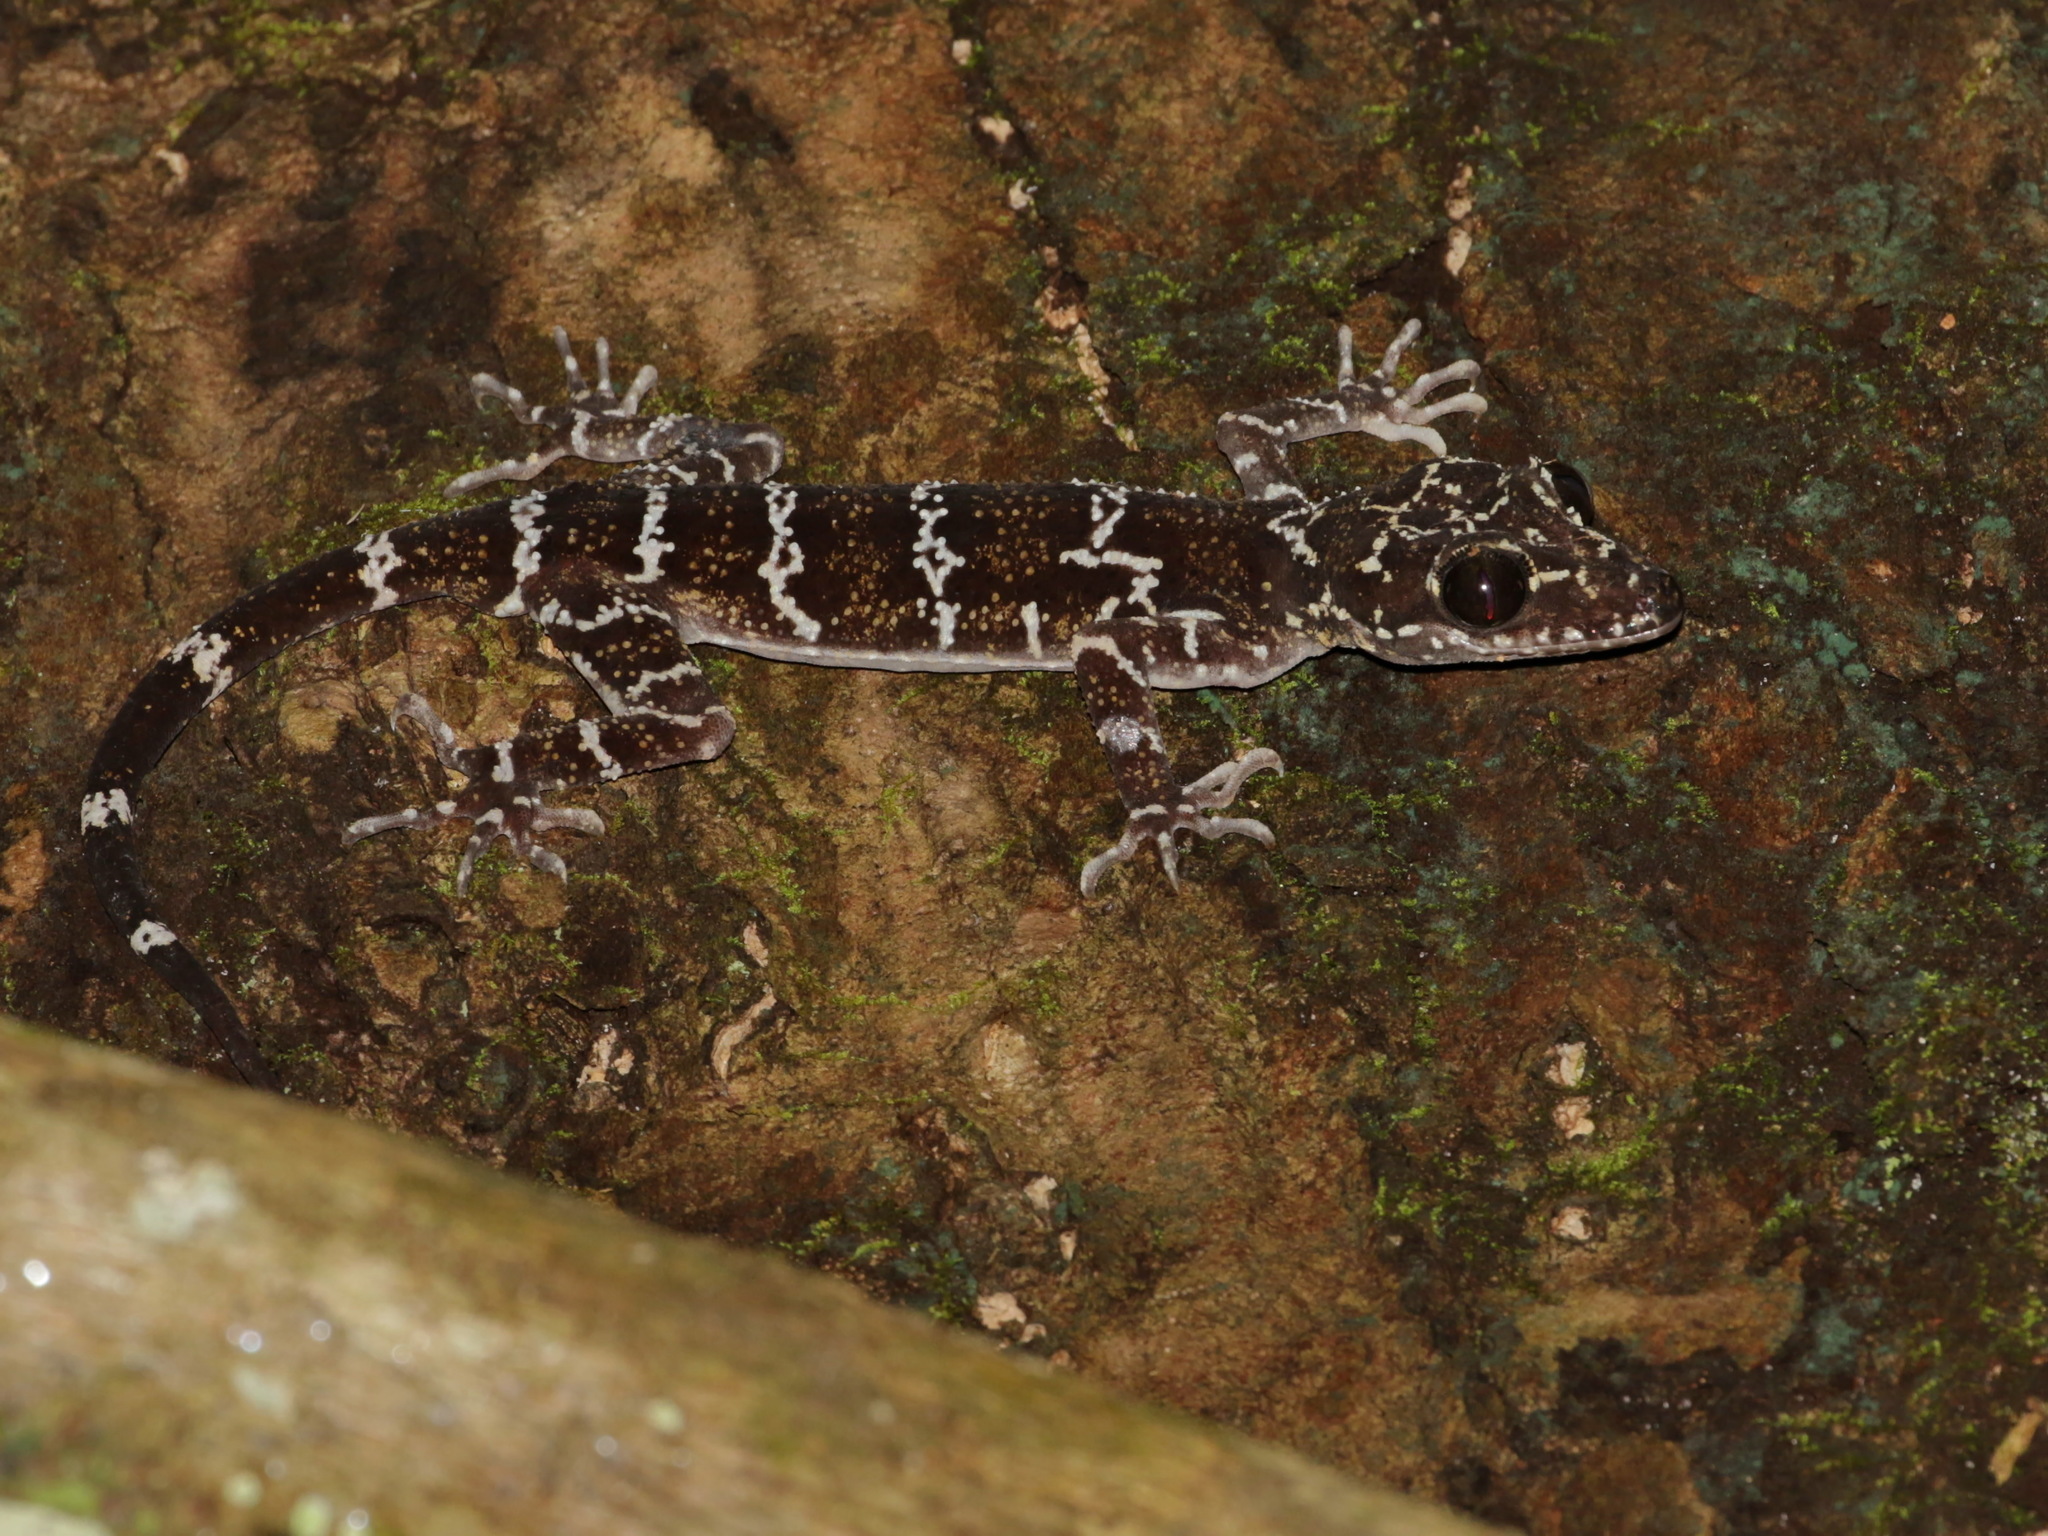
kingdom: Animalia
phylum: Chordata
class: Squamata
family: Gekkonidae
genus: Cyrtodactylus
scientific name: Cyrtodactylus consobrinus
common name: Banded forest gecko
